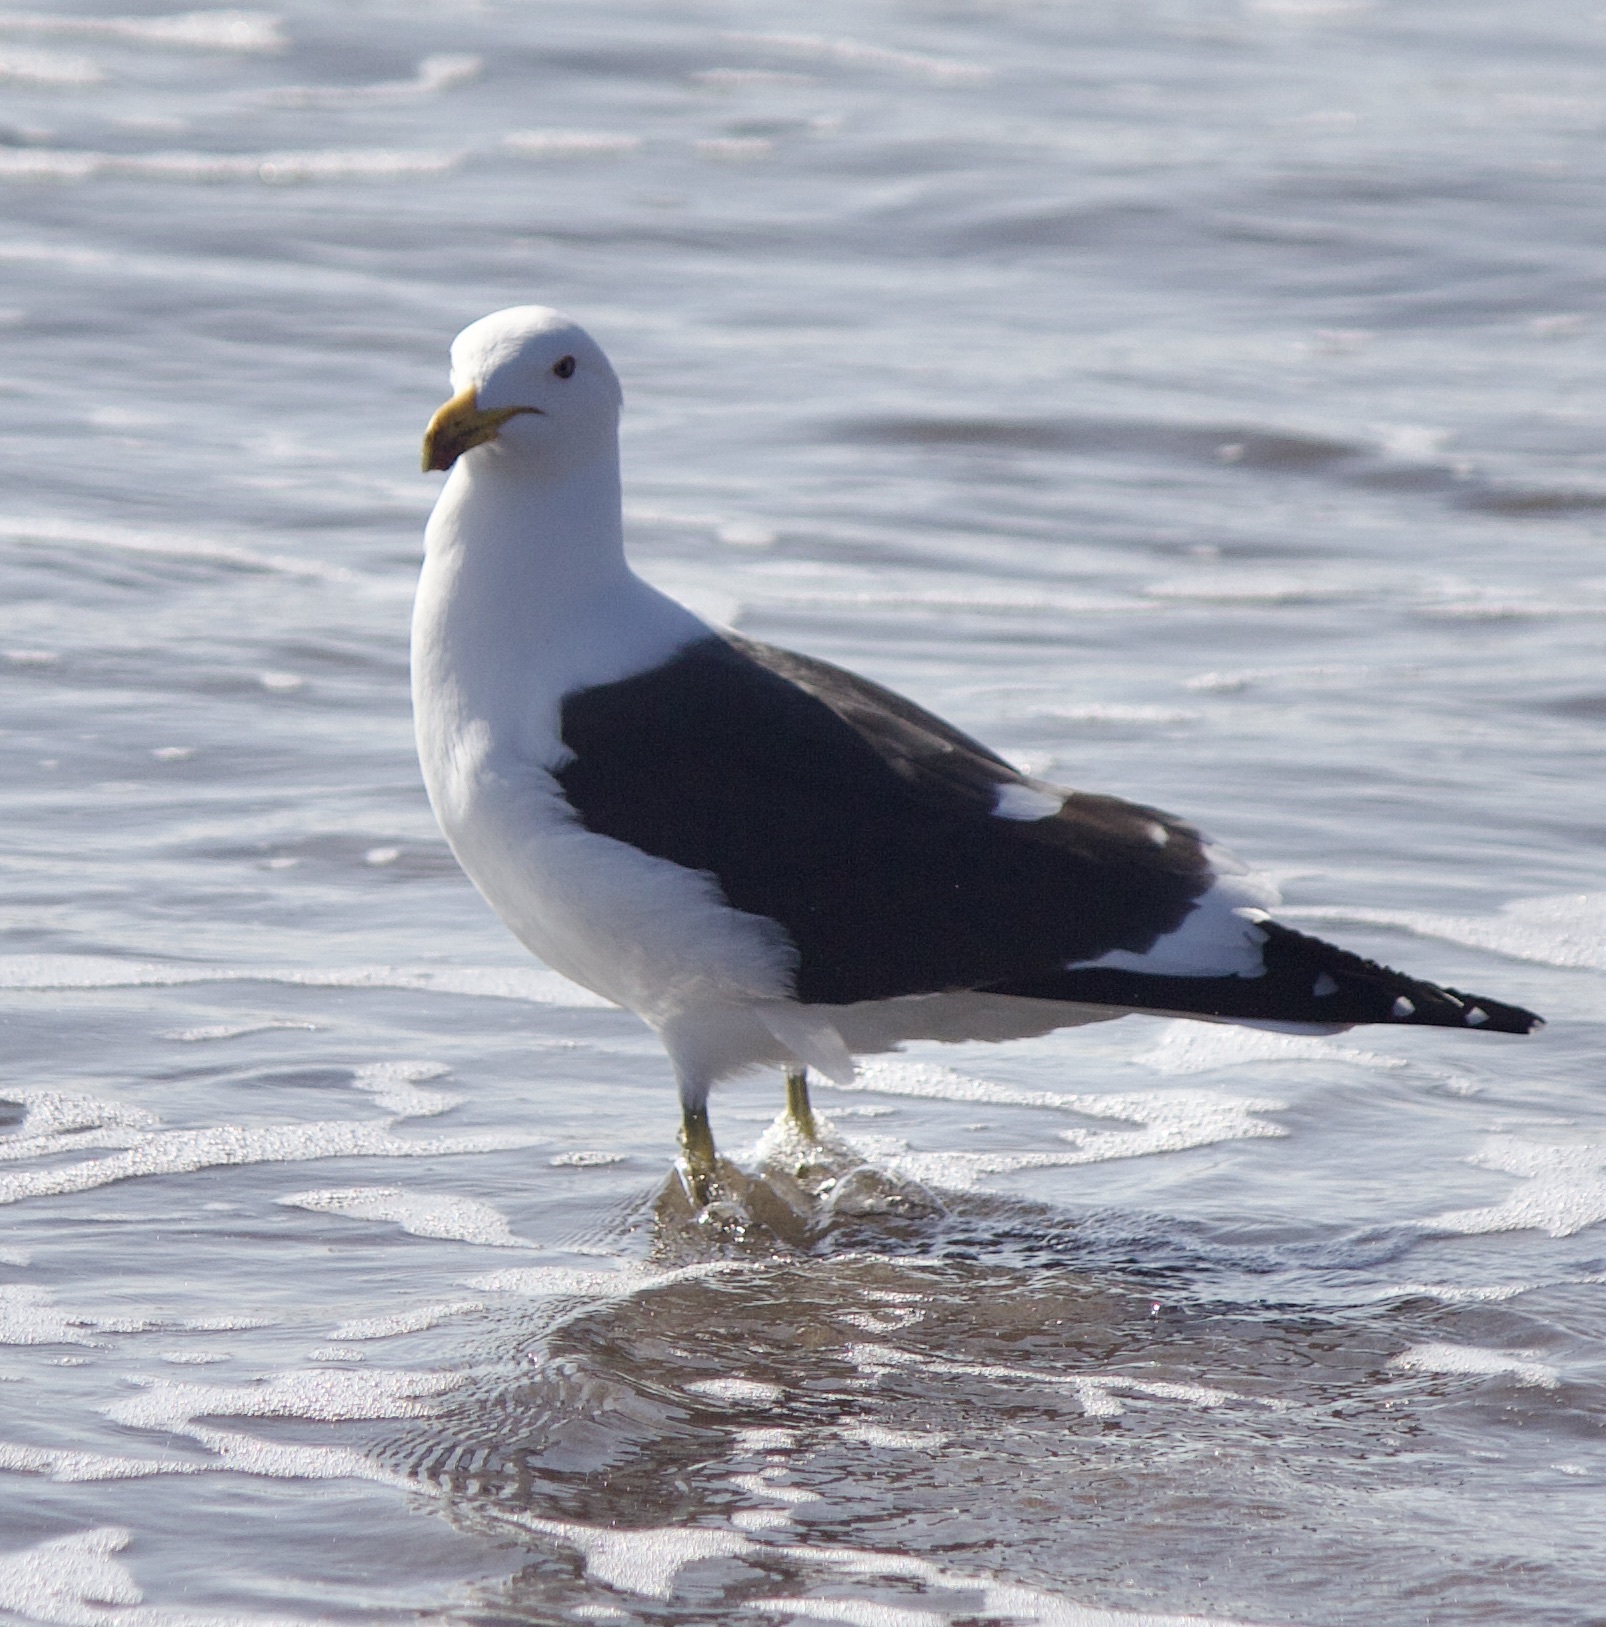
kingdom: Animalia
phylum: Chordata
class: Aves
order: Charadriiformes
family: Laridae
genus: Larus
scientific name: Larus dominicanus
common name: Kelp gull
